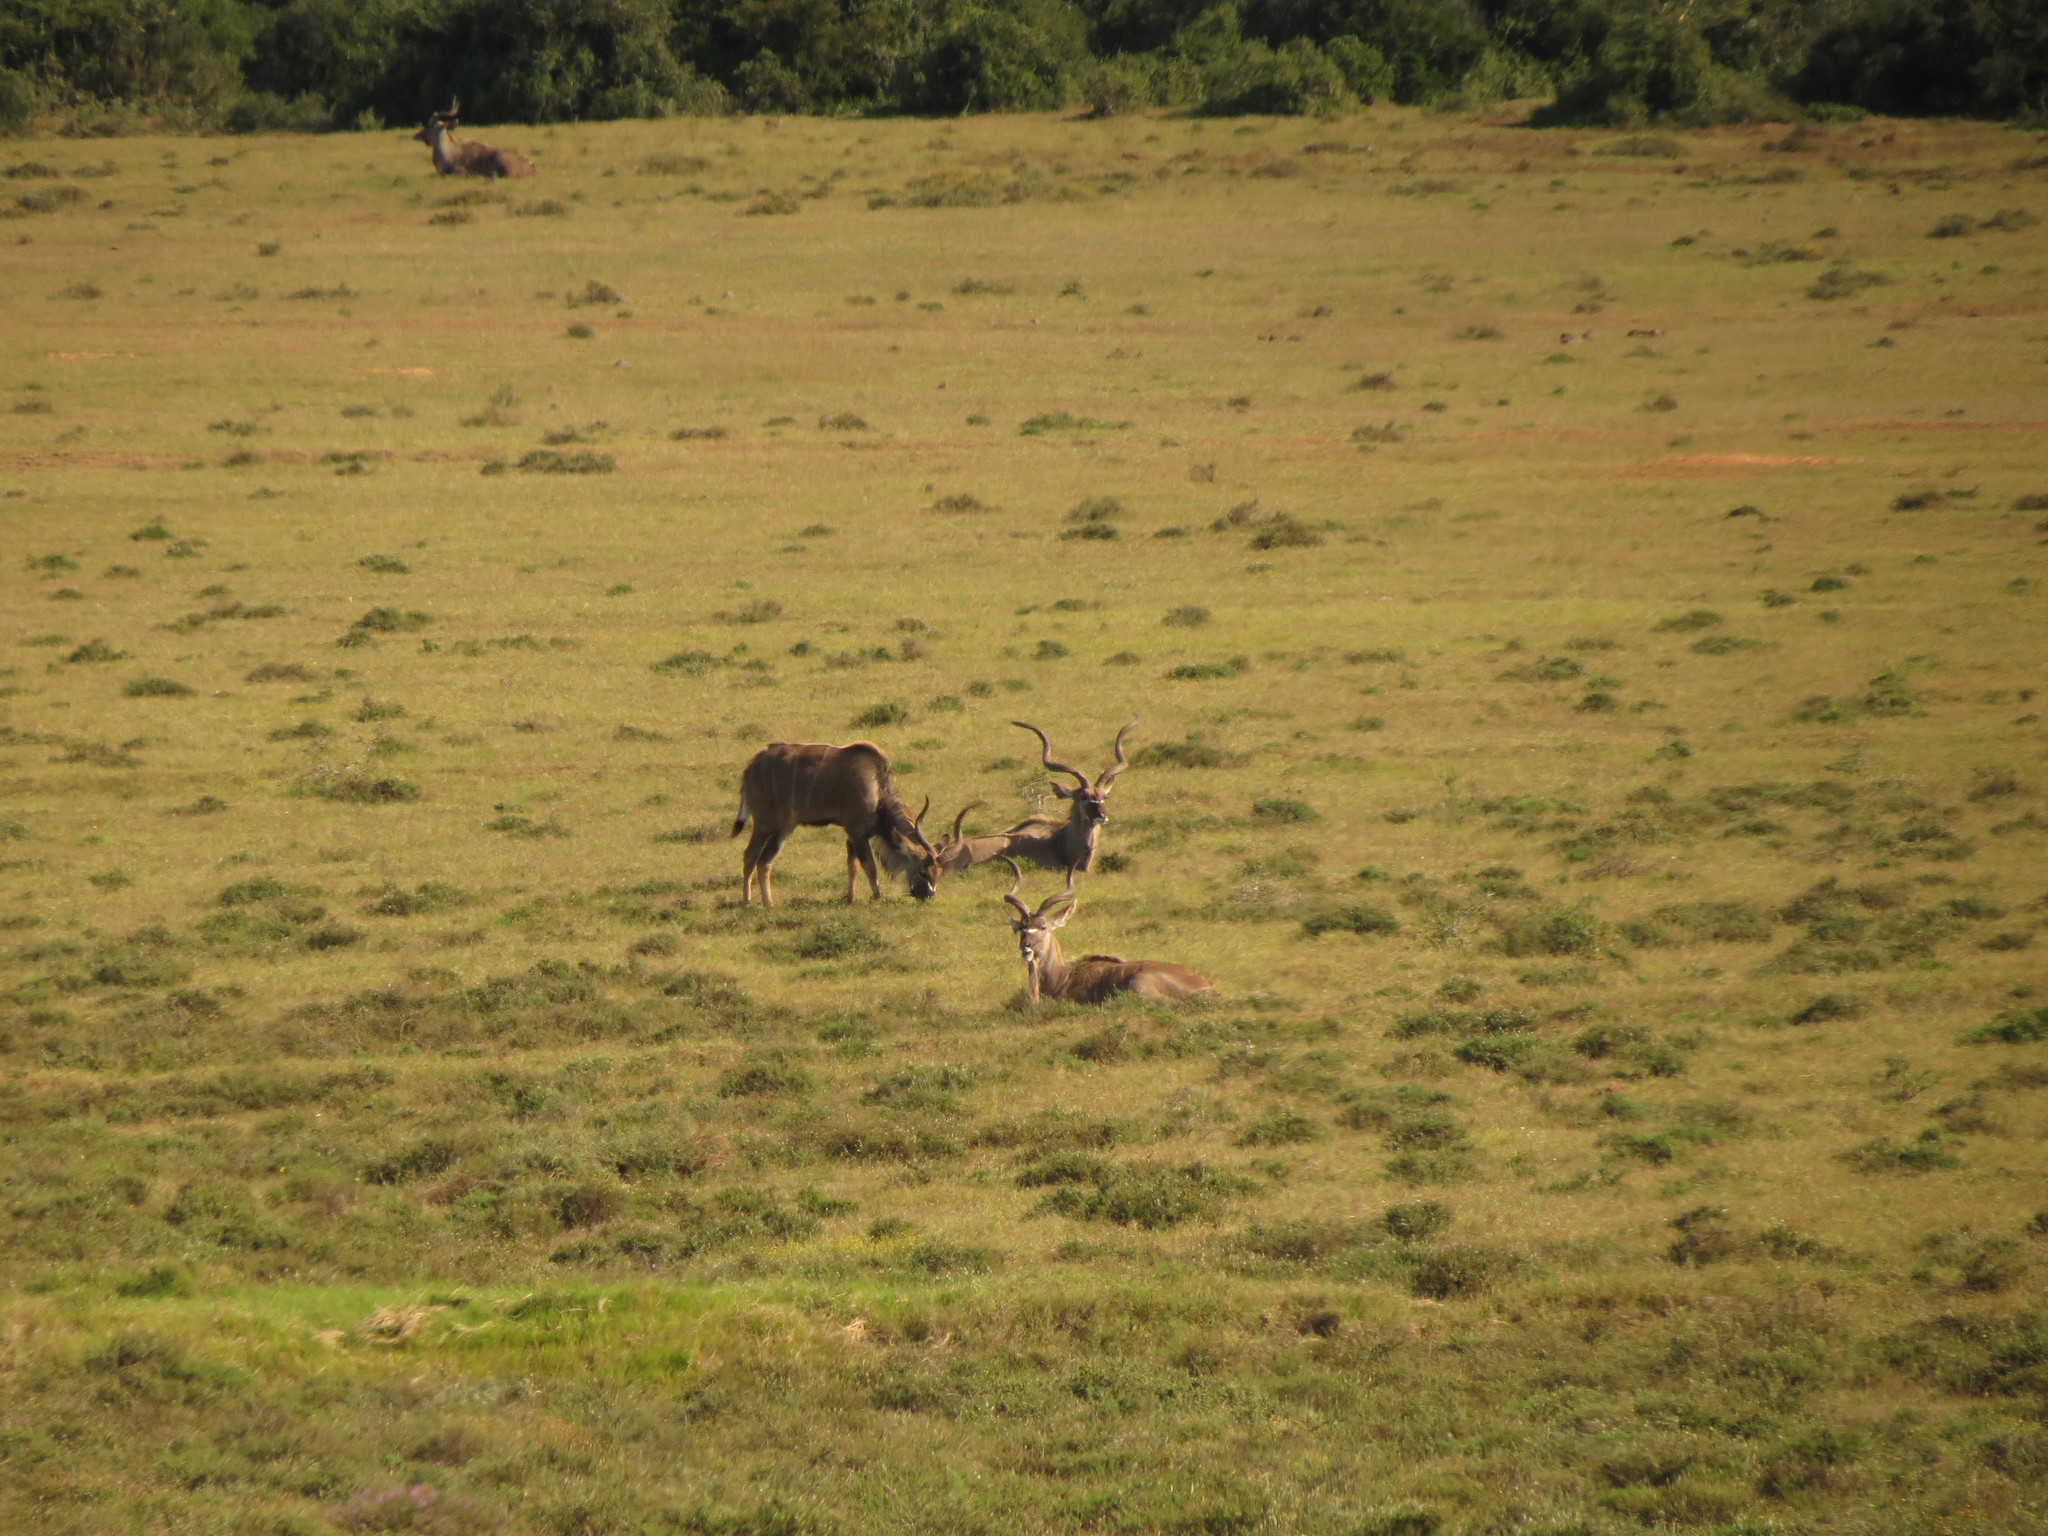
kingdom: Animalia
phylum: Chordata
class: Mammalia
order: Artiodactyla
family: Bovidae
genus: Tragelaphus
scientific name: Tragelaphus strepsiceros
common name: Greater kudu
